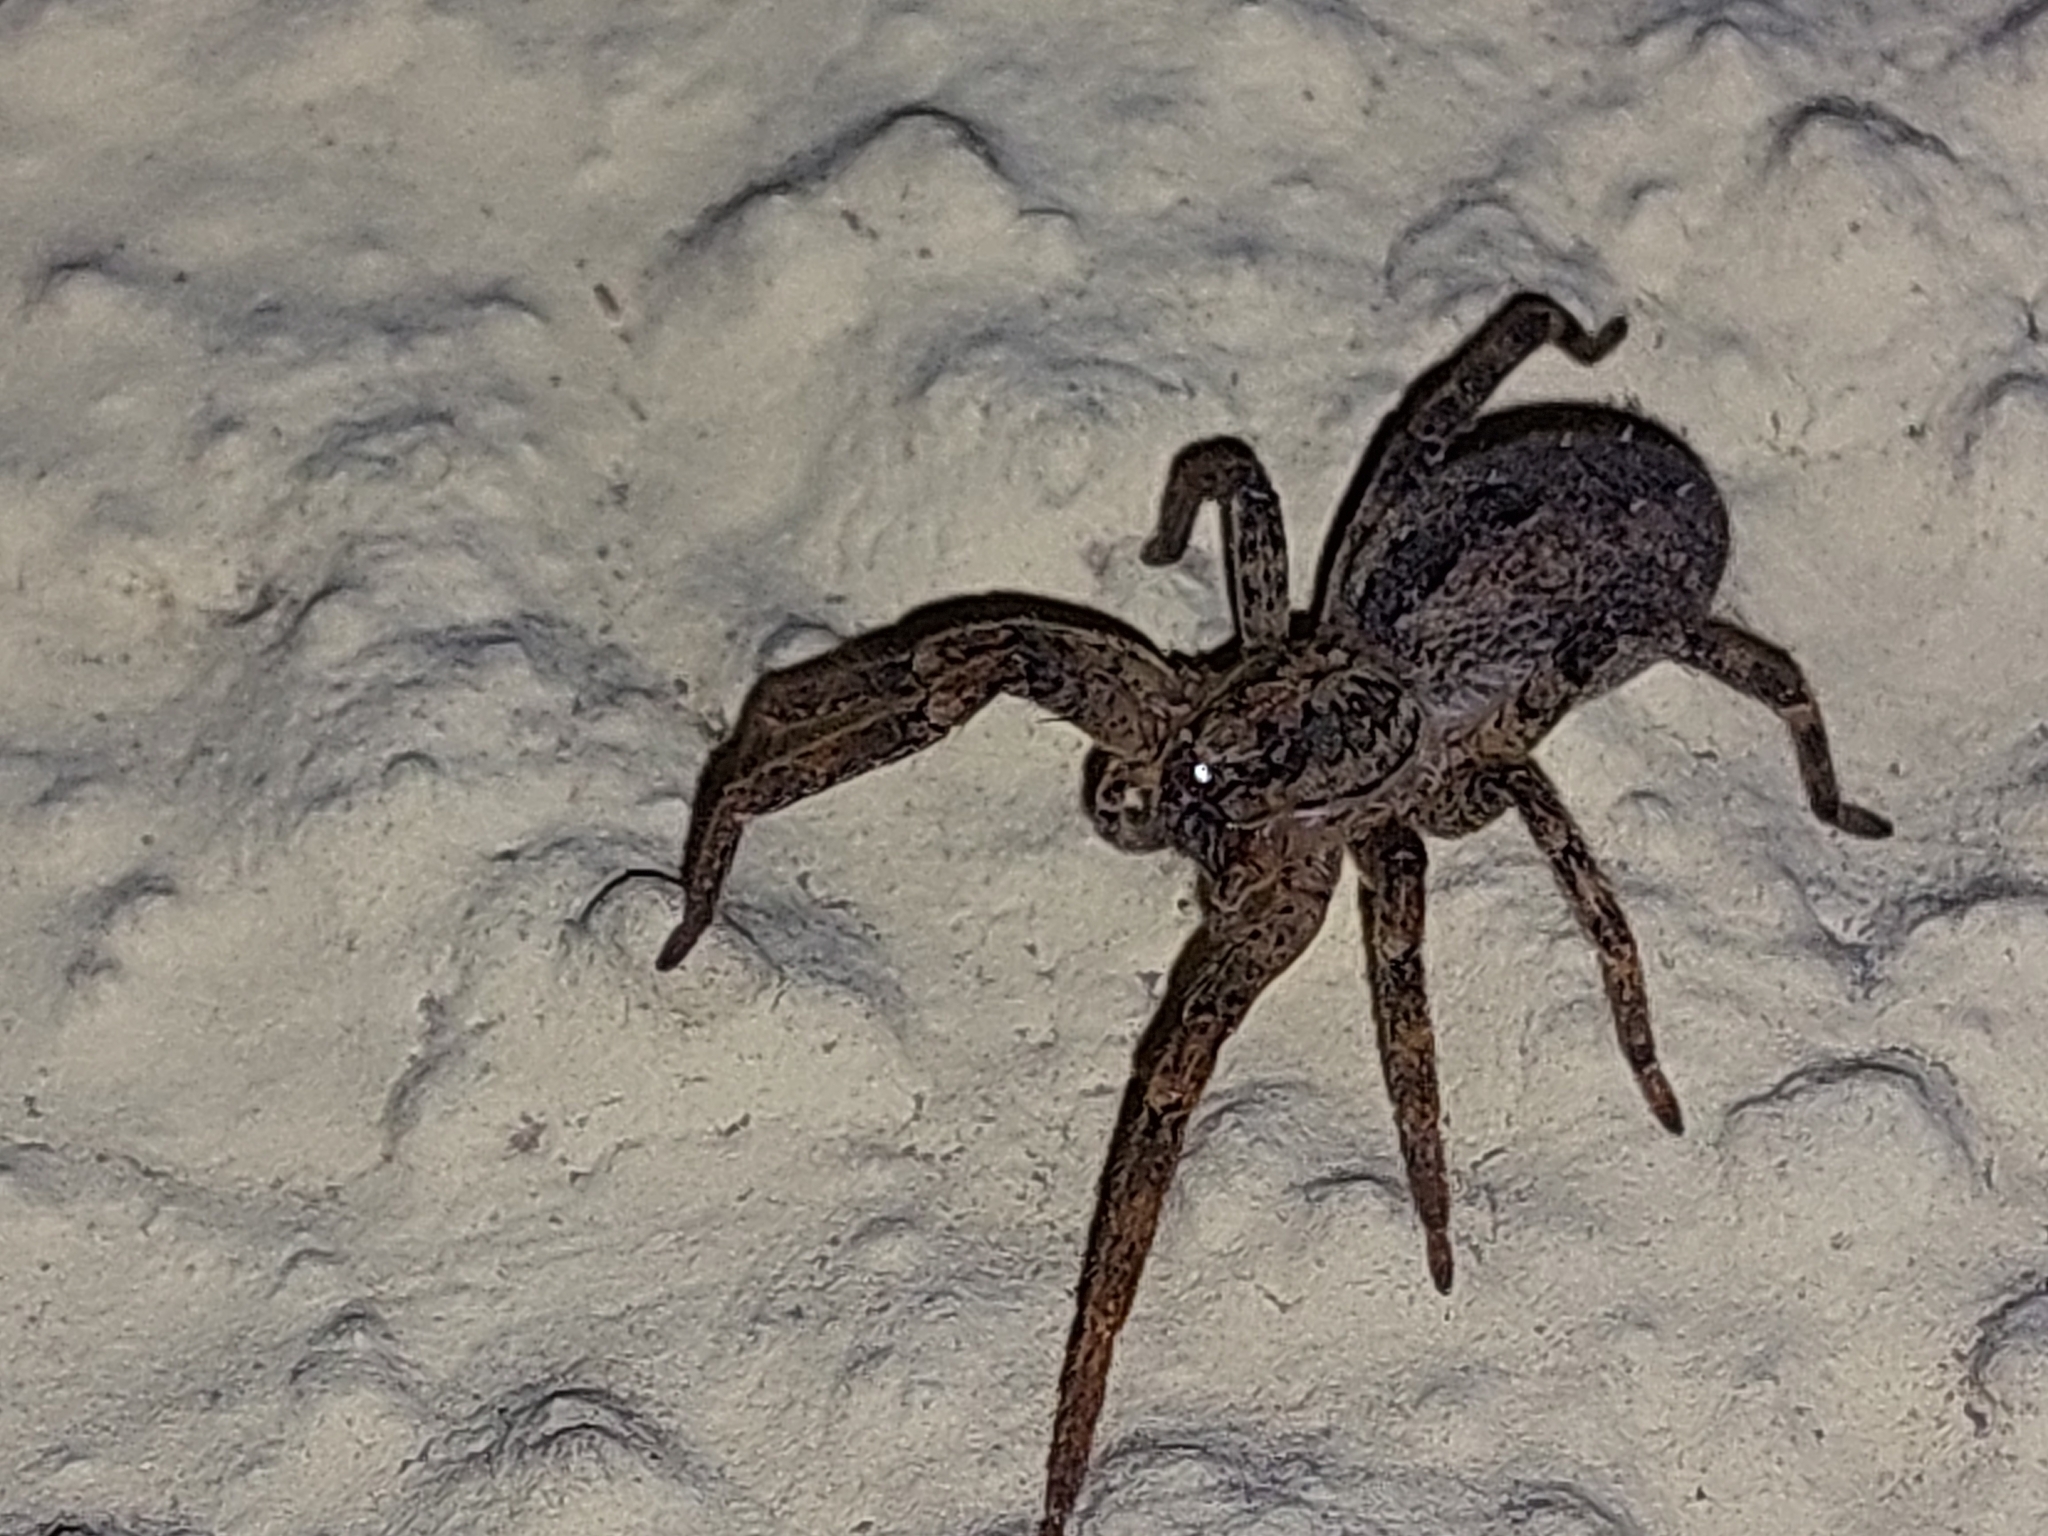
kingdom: Animalia
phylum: Arthropoda
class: Arachnida
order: Araneae
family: Zoropsidae
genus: Zoropsis
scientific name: Zoropsis spinimana
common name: Zoropsid spider
